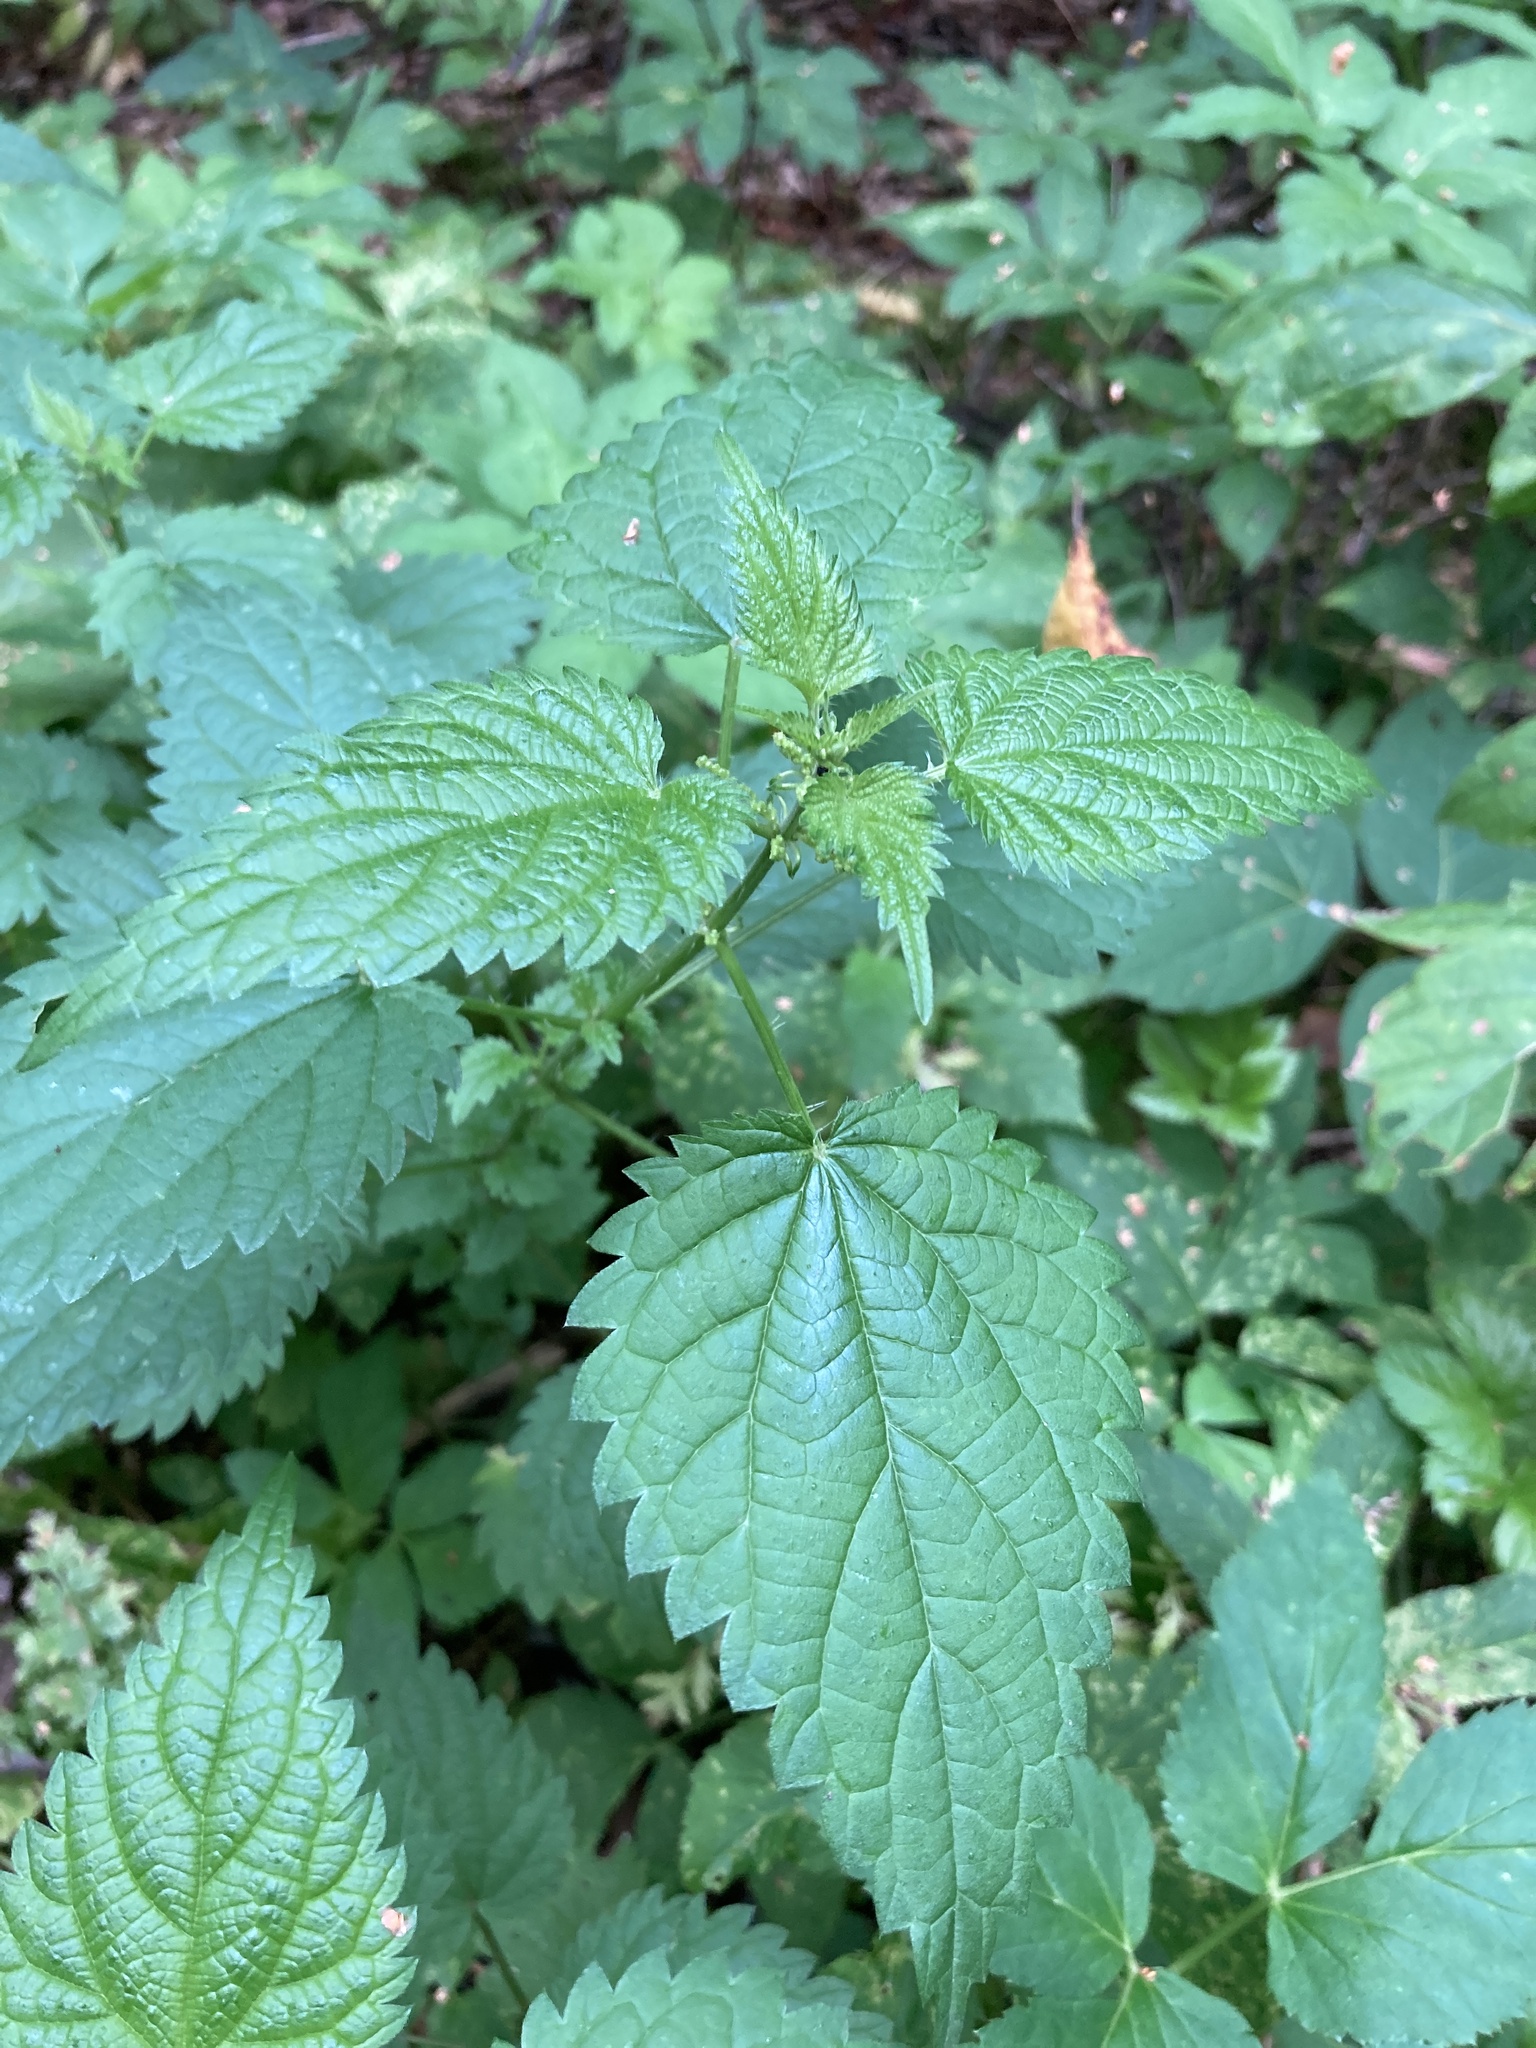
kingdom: Plantae
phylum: Tracheophyta
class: Magnoliopsida
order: Rosales
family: Urticaceae
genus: Urtica
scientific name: Urtica dioica
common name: Common nettle
